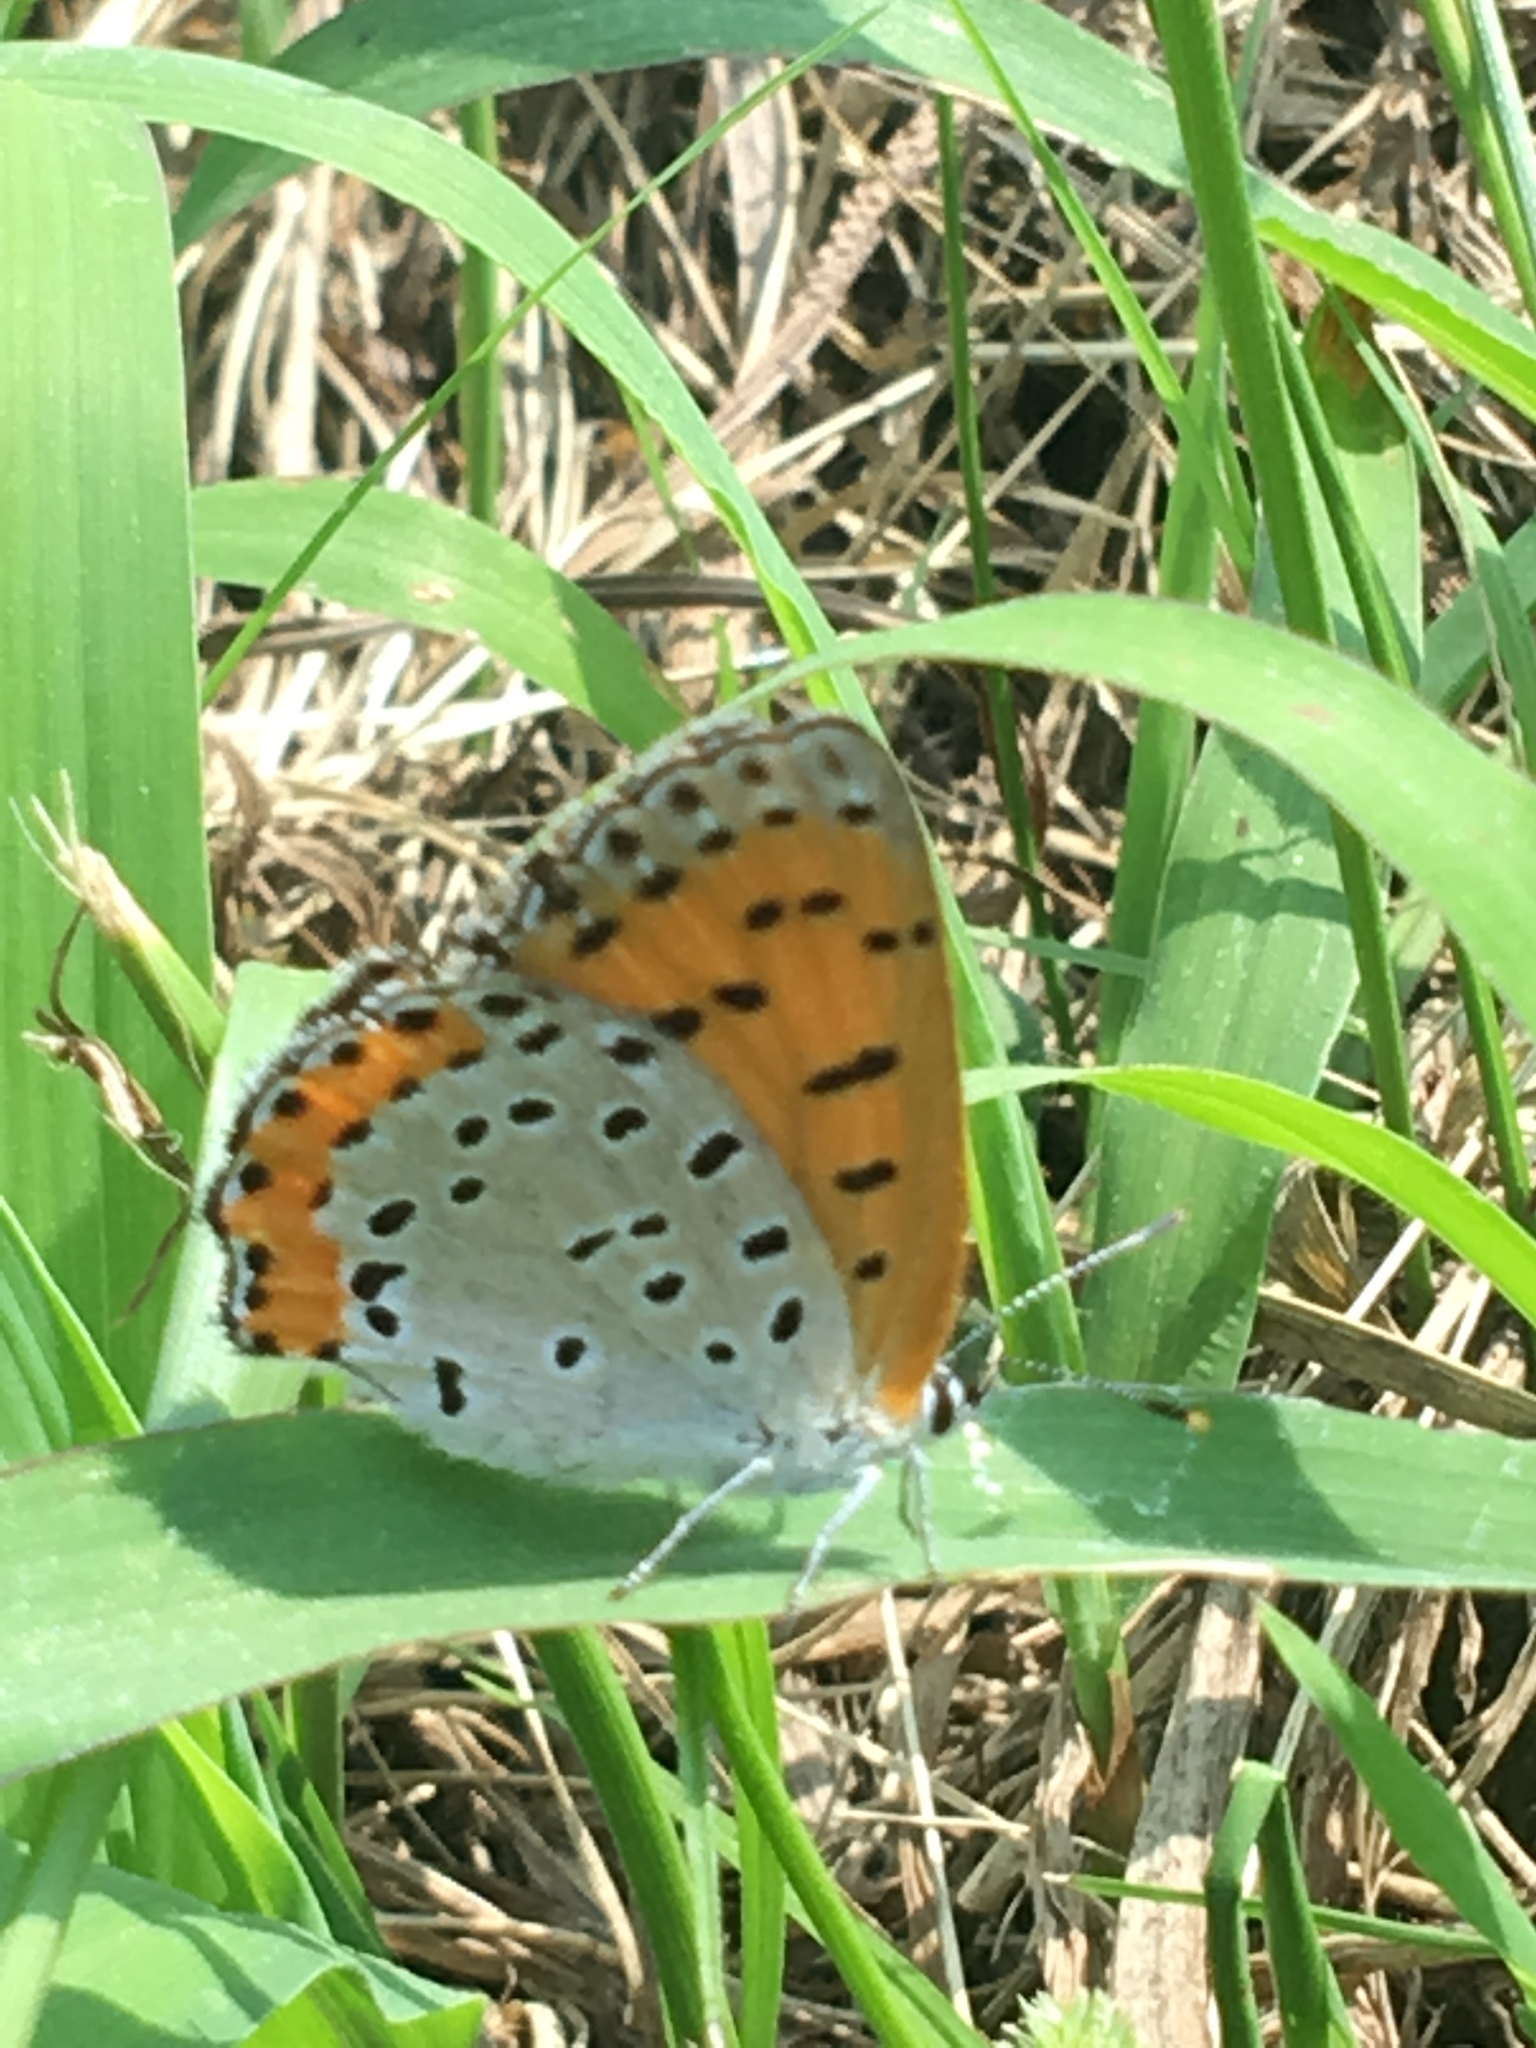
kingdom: Animalia
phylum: Arthropoda
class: Insecta
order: Lepidoptera
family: Lycaenidae
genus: Tharsalea
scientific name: Tharsalea hyllus
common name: Bronze copper
